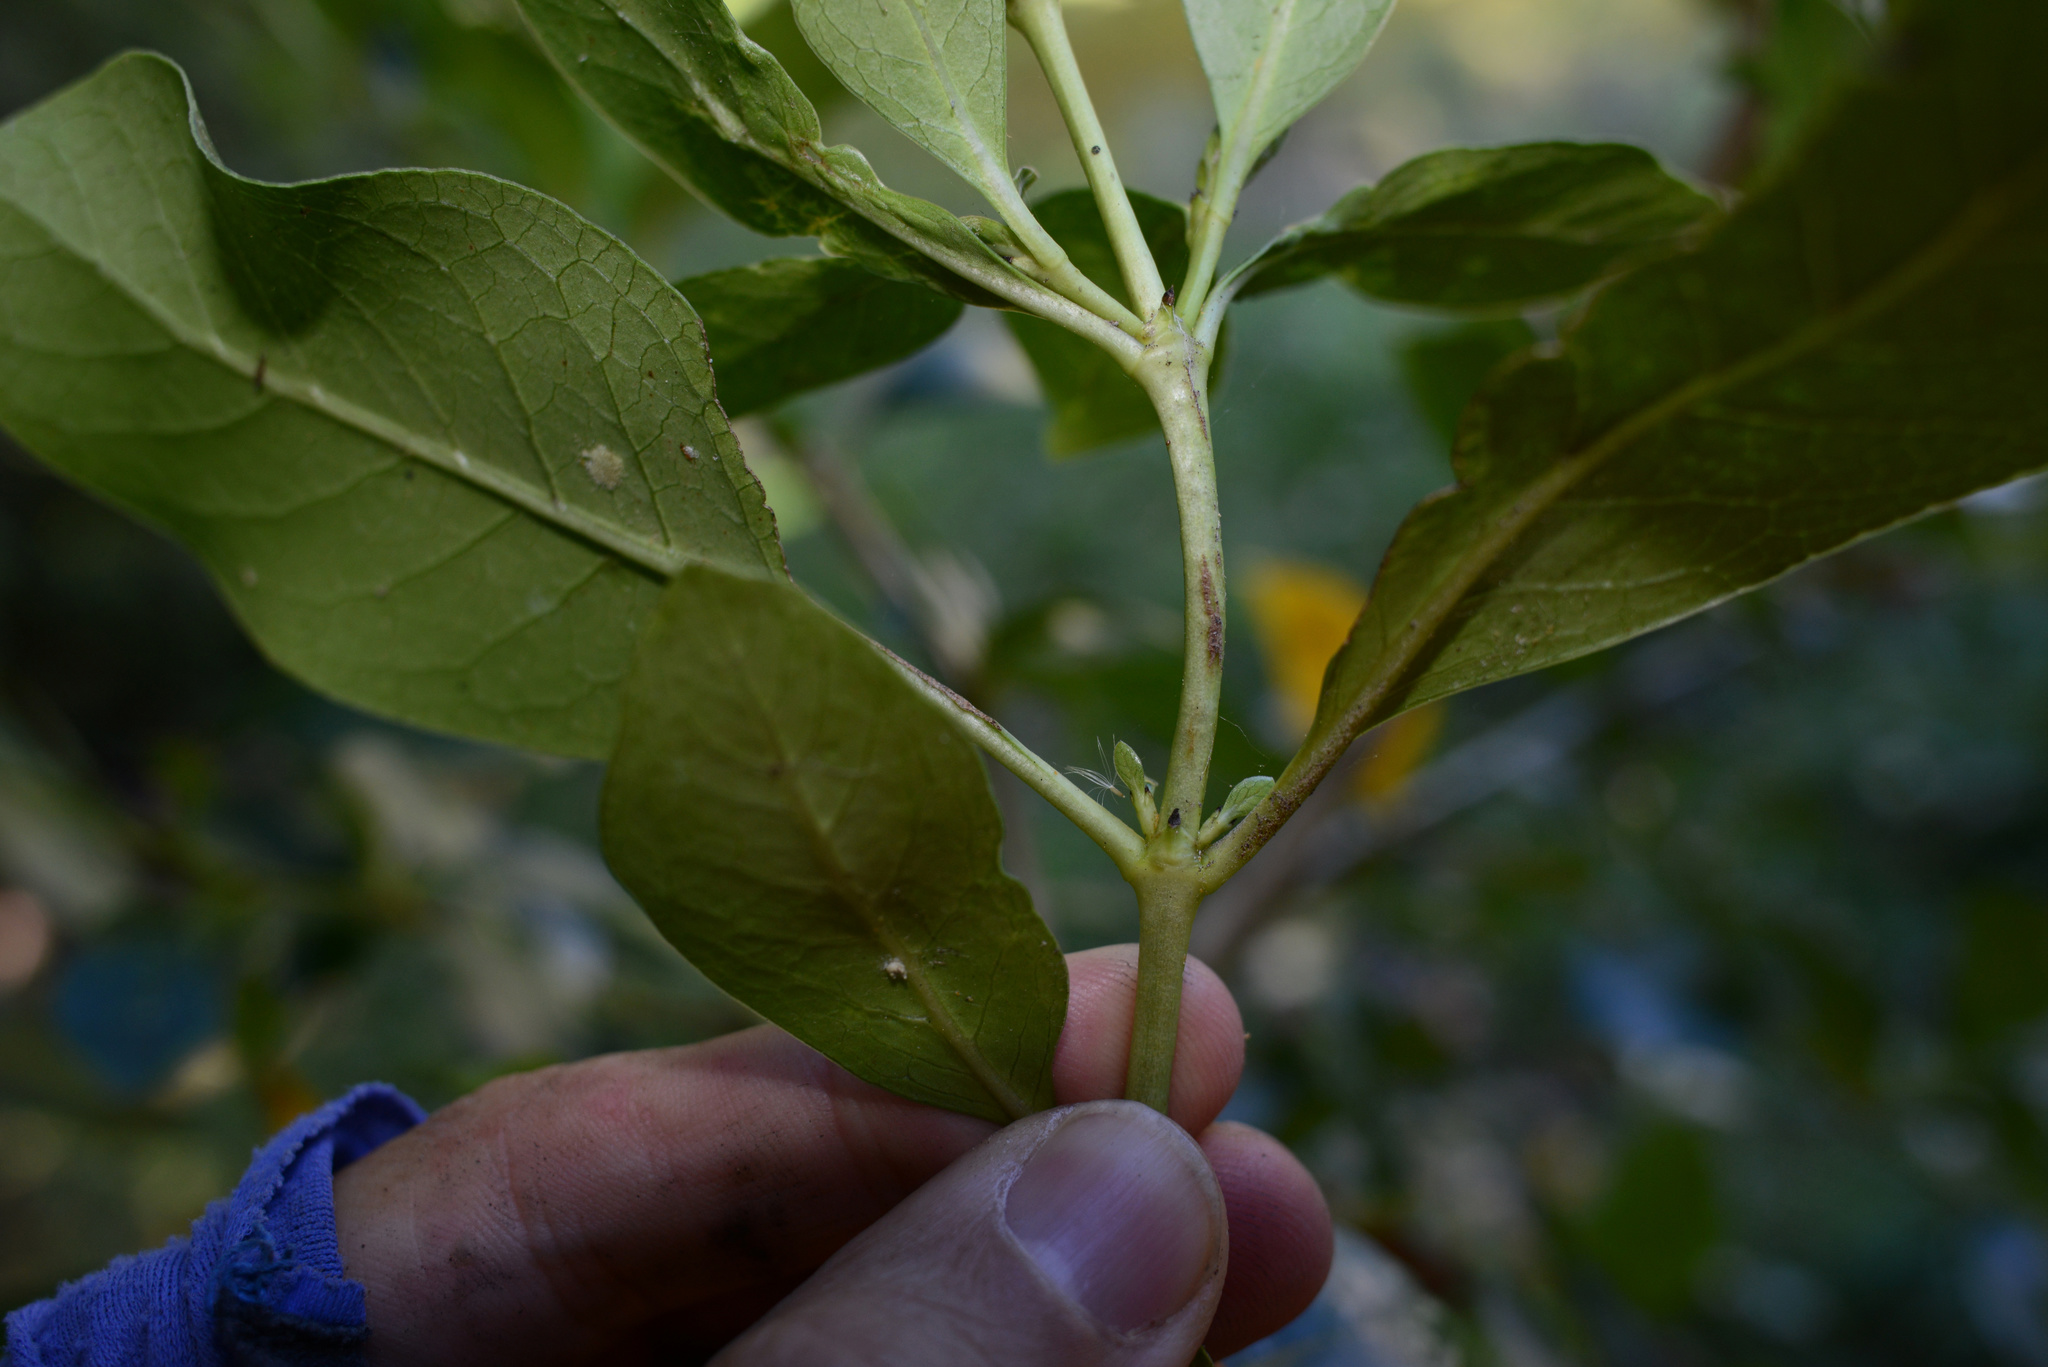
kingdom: Plantae
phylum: Tracheophyta
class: Magnoliopsida
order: Gentianales
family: Rubiaceae
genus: Coprosma
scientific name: Coprosma robusta
